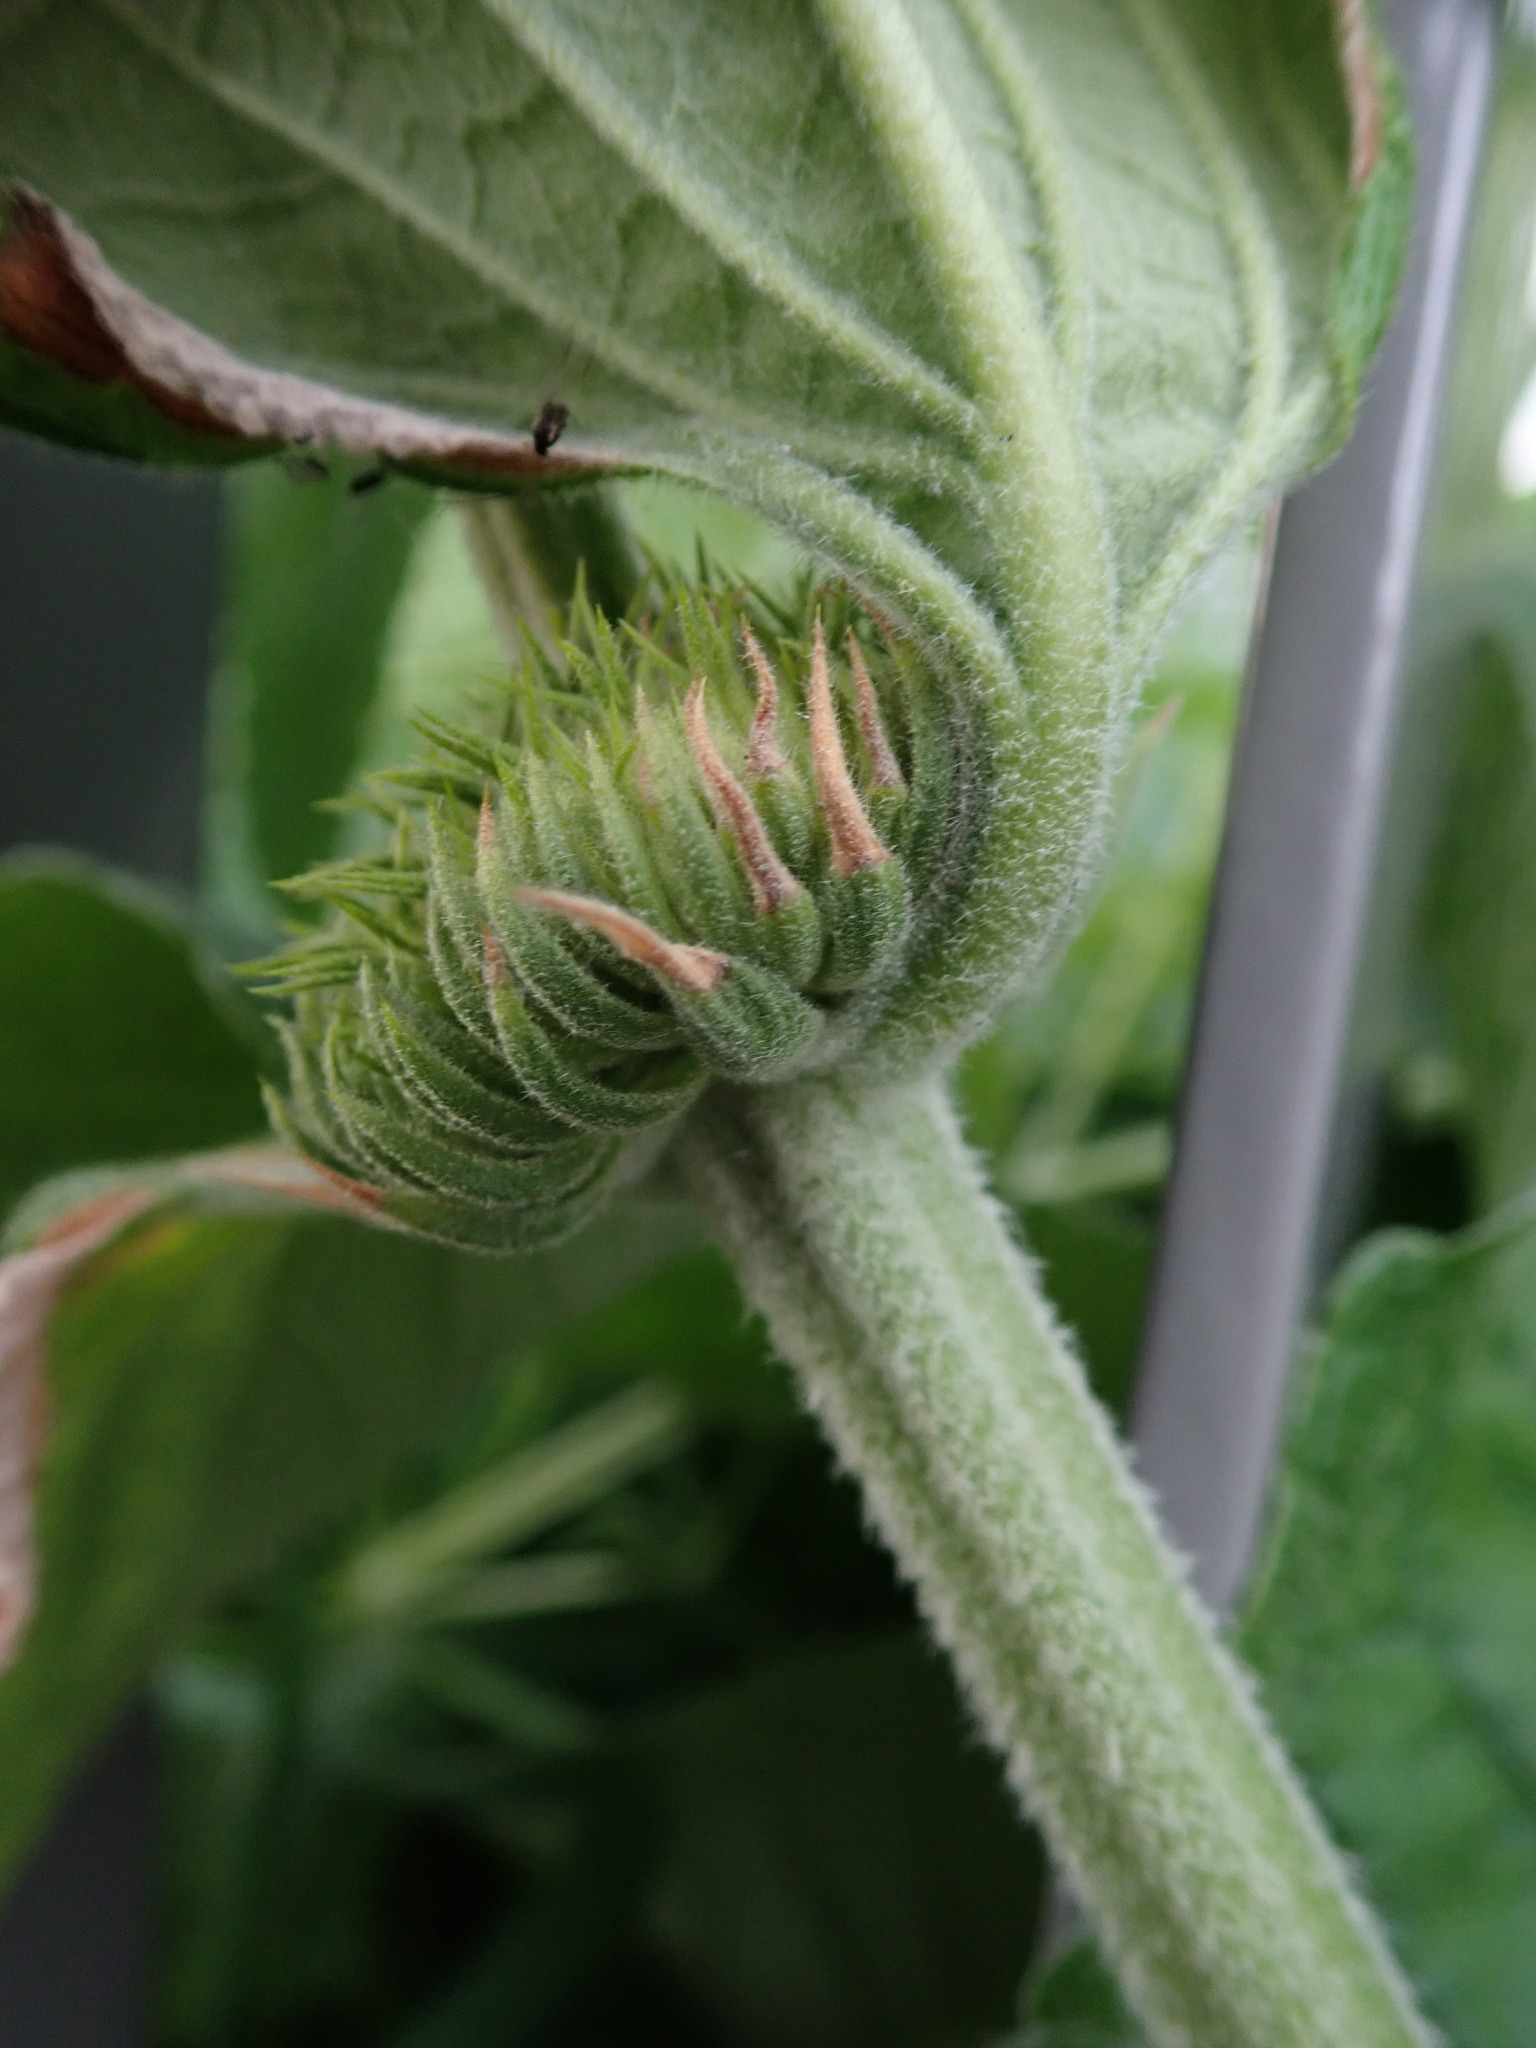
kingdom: Plantae
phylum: Tracheophyta
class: Magnoliopsida
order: Lamiales
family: Lamiaceae
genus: Phlomis
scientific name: Phlomis russeliana
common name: Turkish sage
